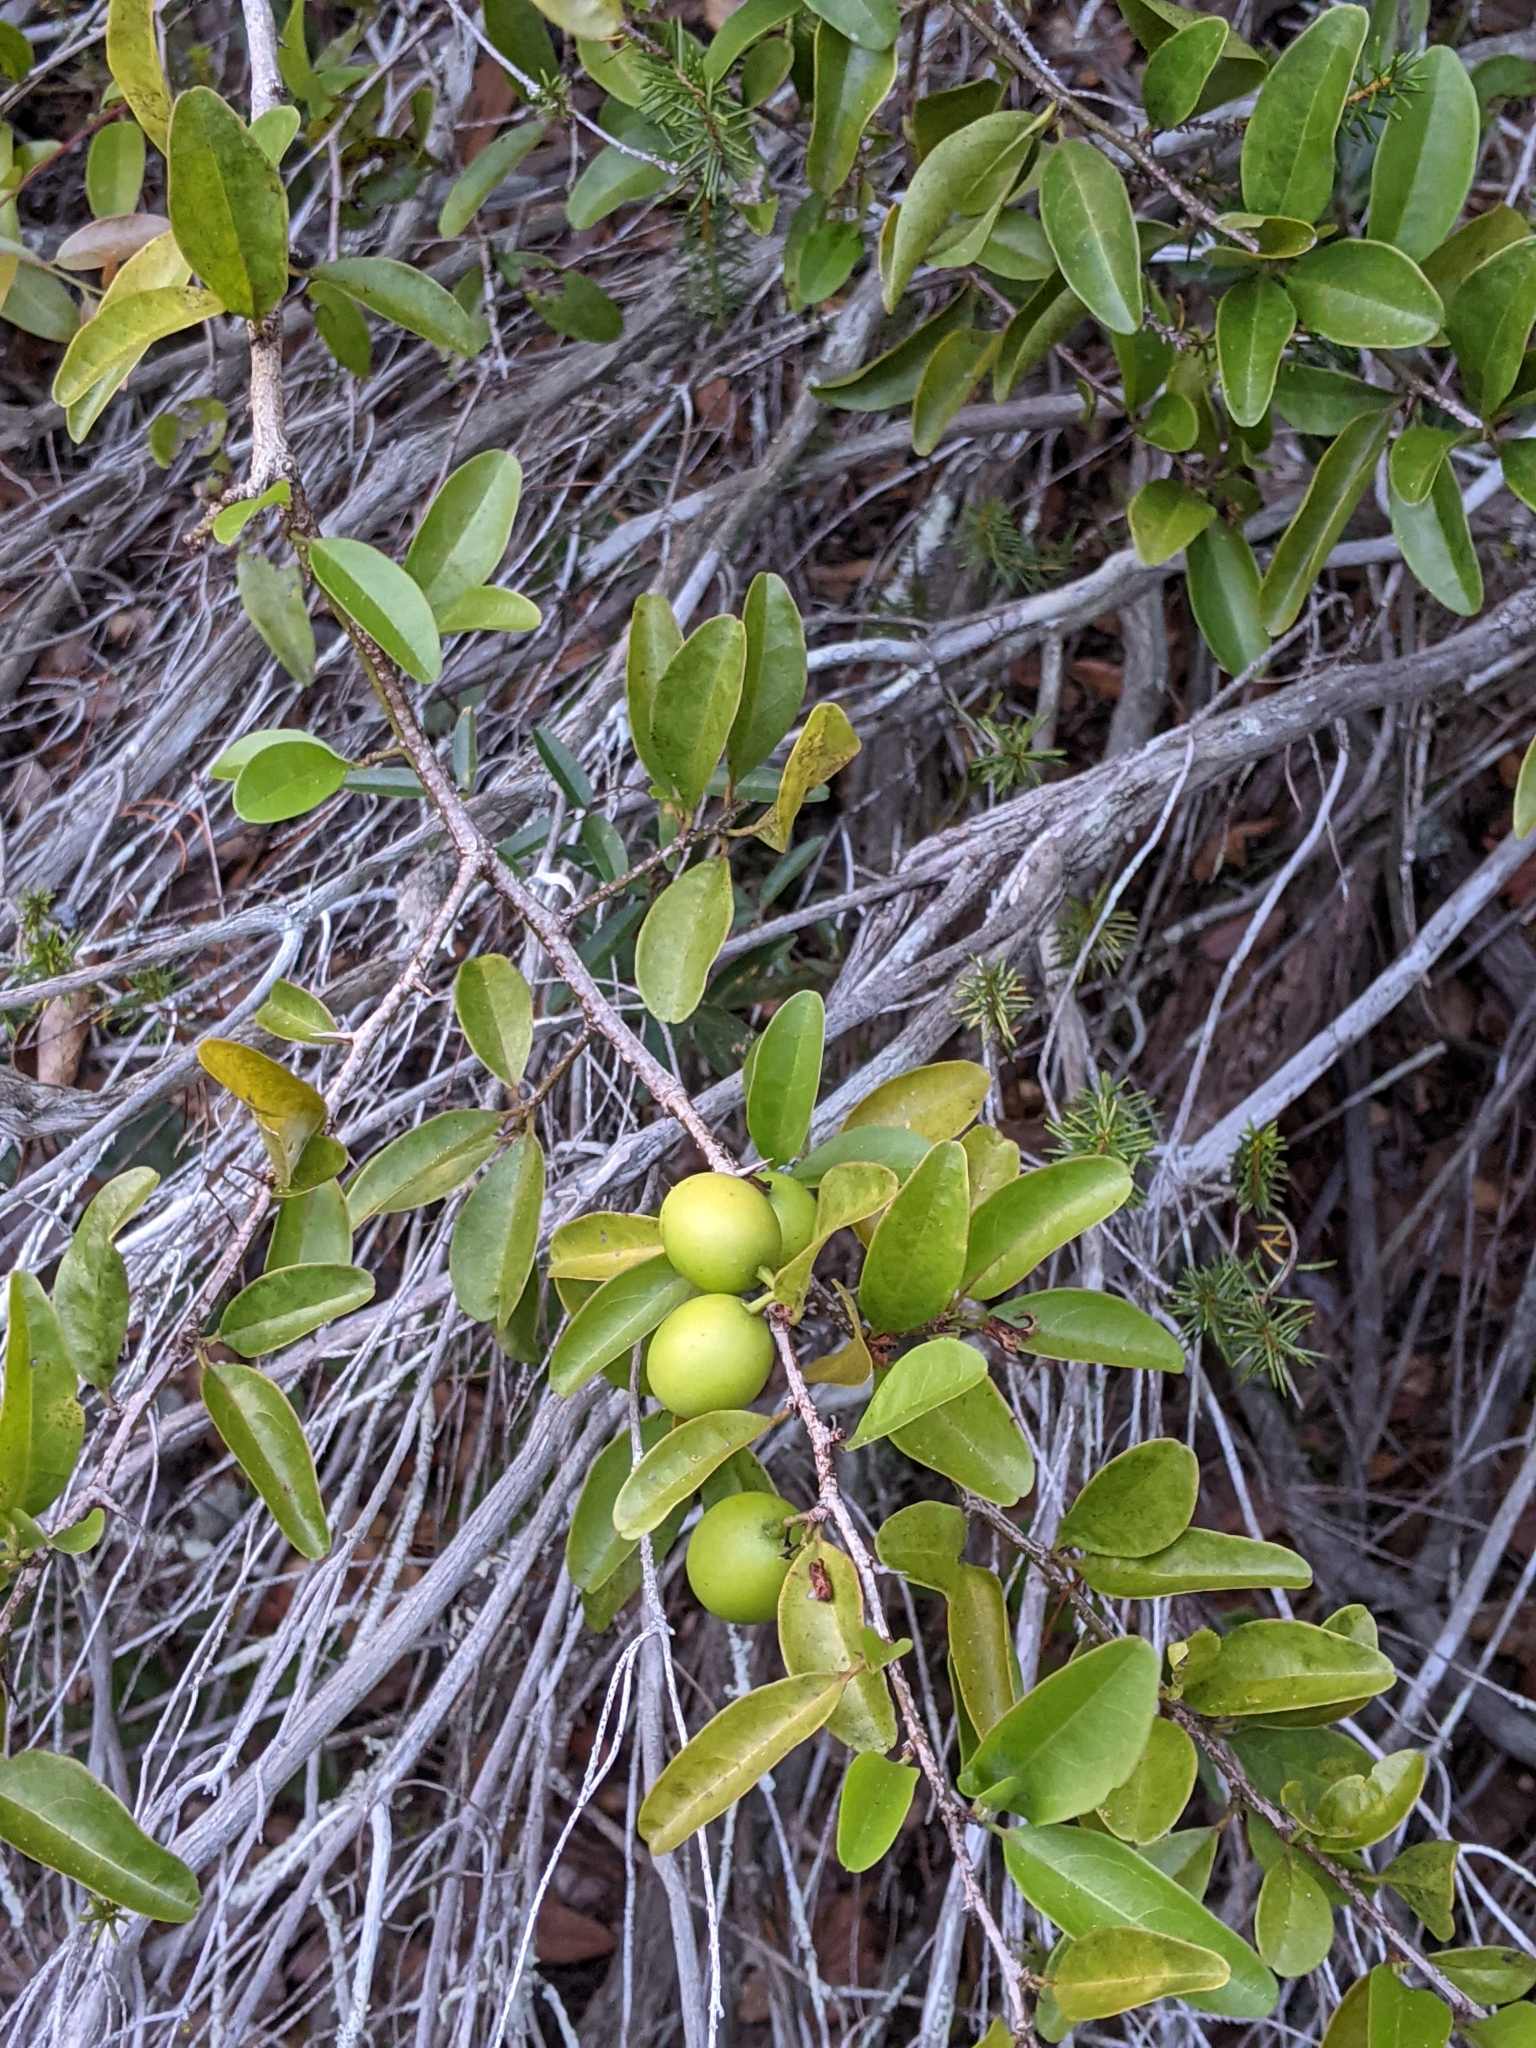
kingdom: Plantae
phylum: Tracheophyta
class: Magnoliopsida
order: Santalales
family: Ximeniaceae
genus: Ximenia
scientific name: Ximenia americana
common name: Tallowwood
